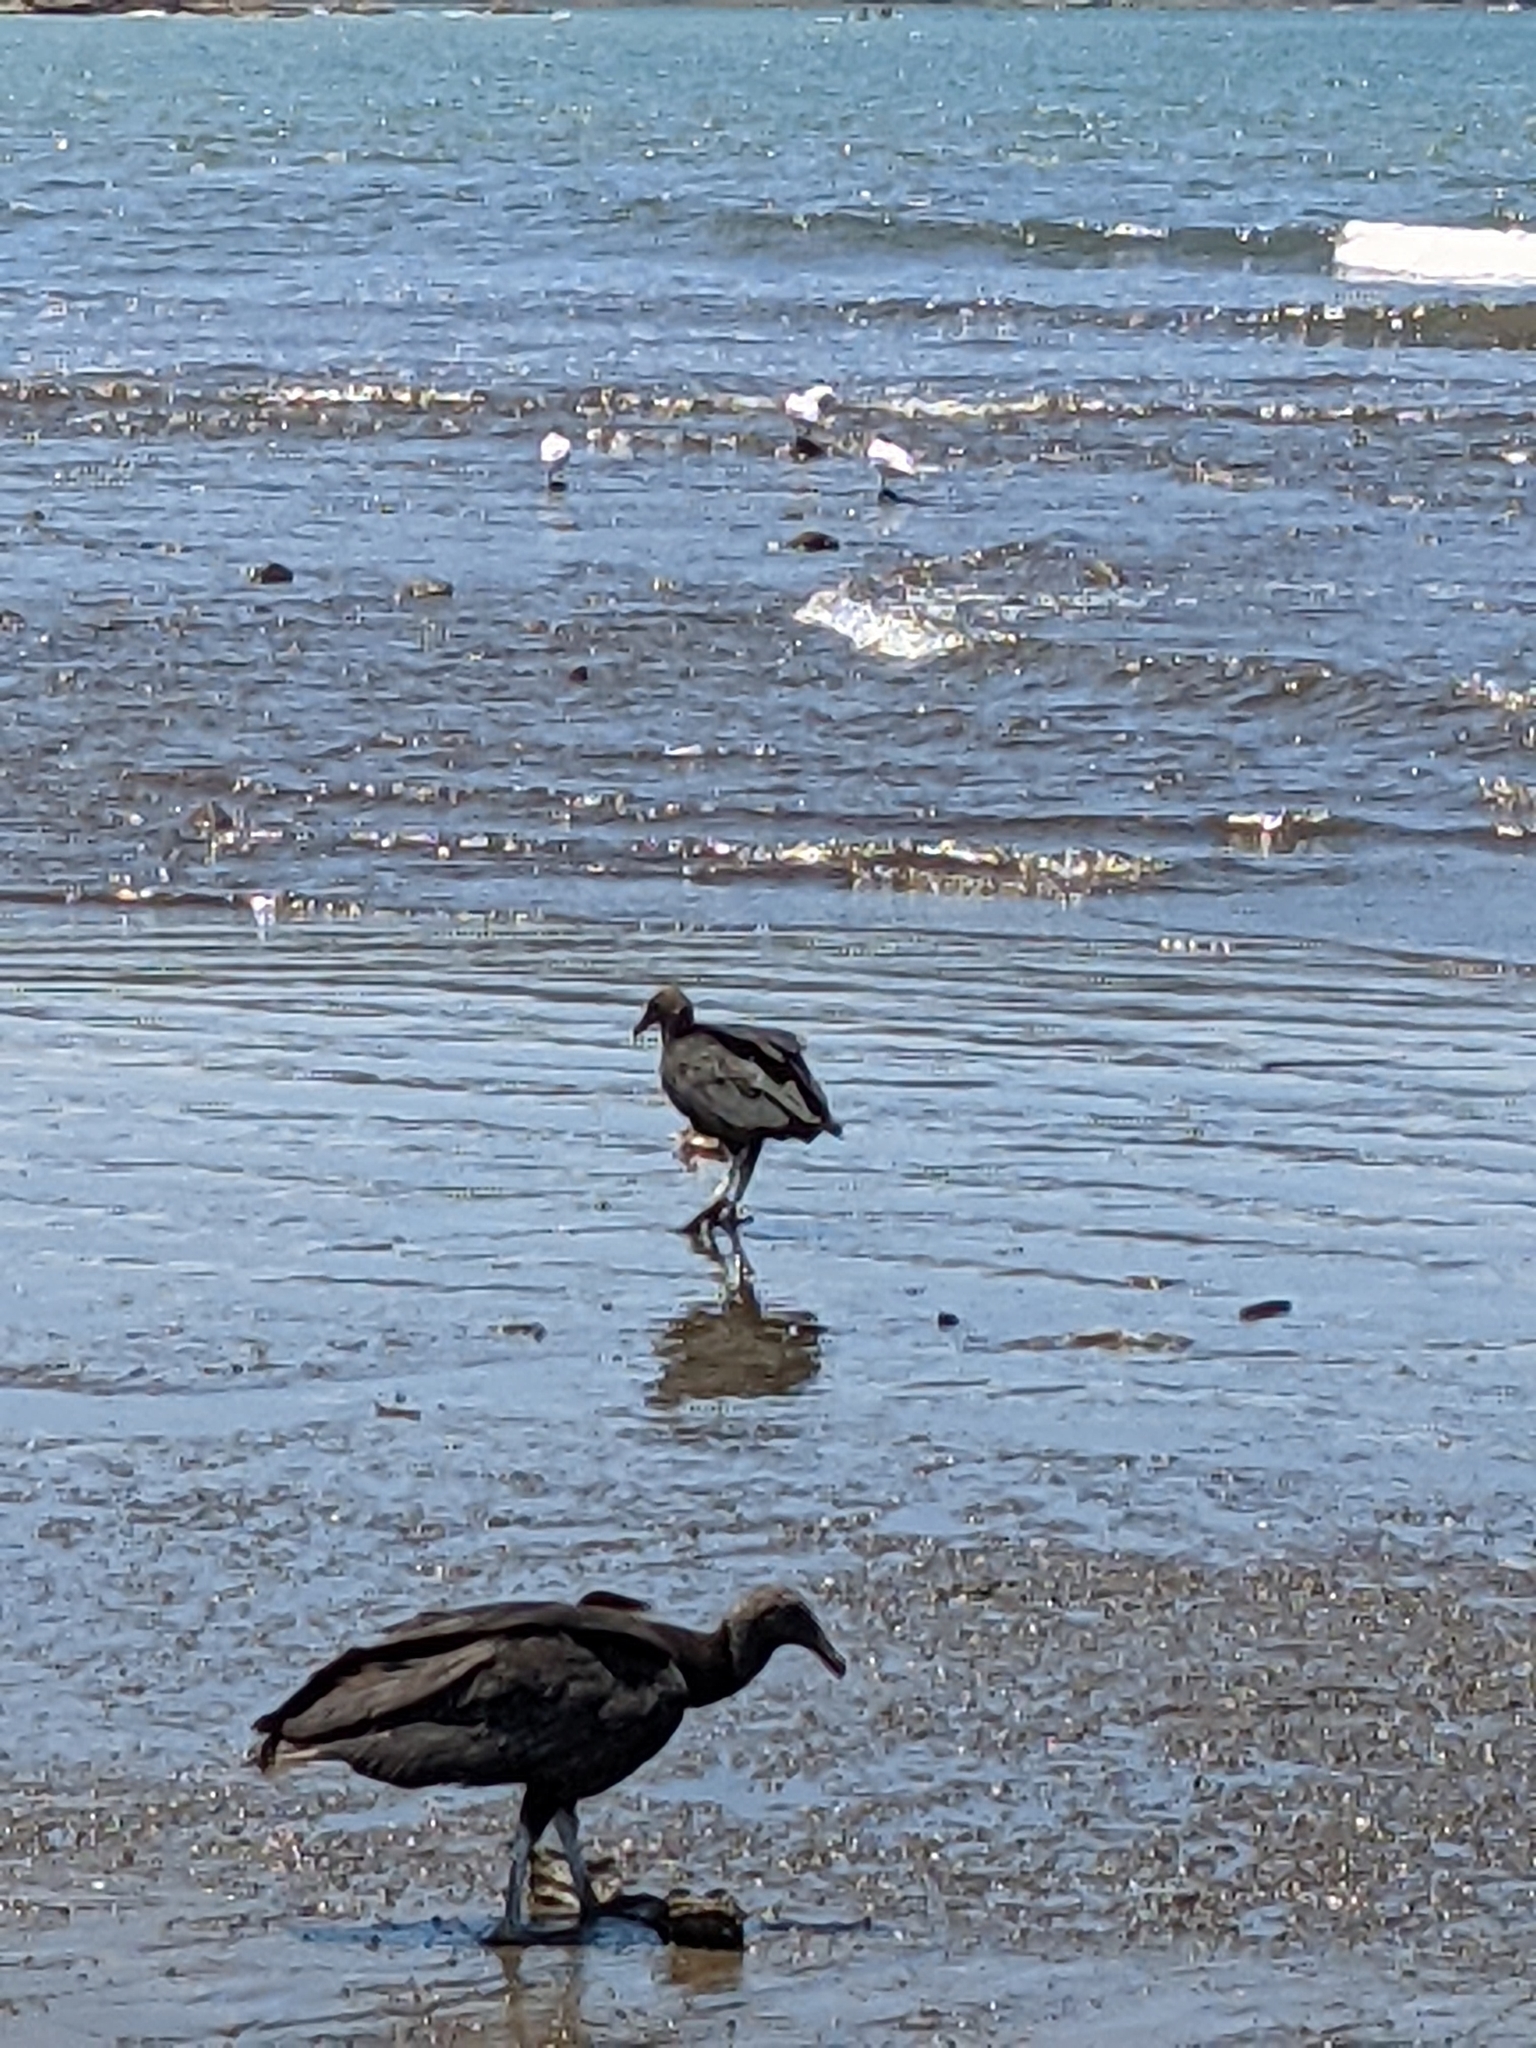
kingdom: Animalia
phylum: Chordata
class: Aves
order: Accipitriformes
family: Cathartidae
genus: Coragyps
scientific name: Coragyps atratus
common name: Black vulture
